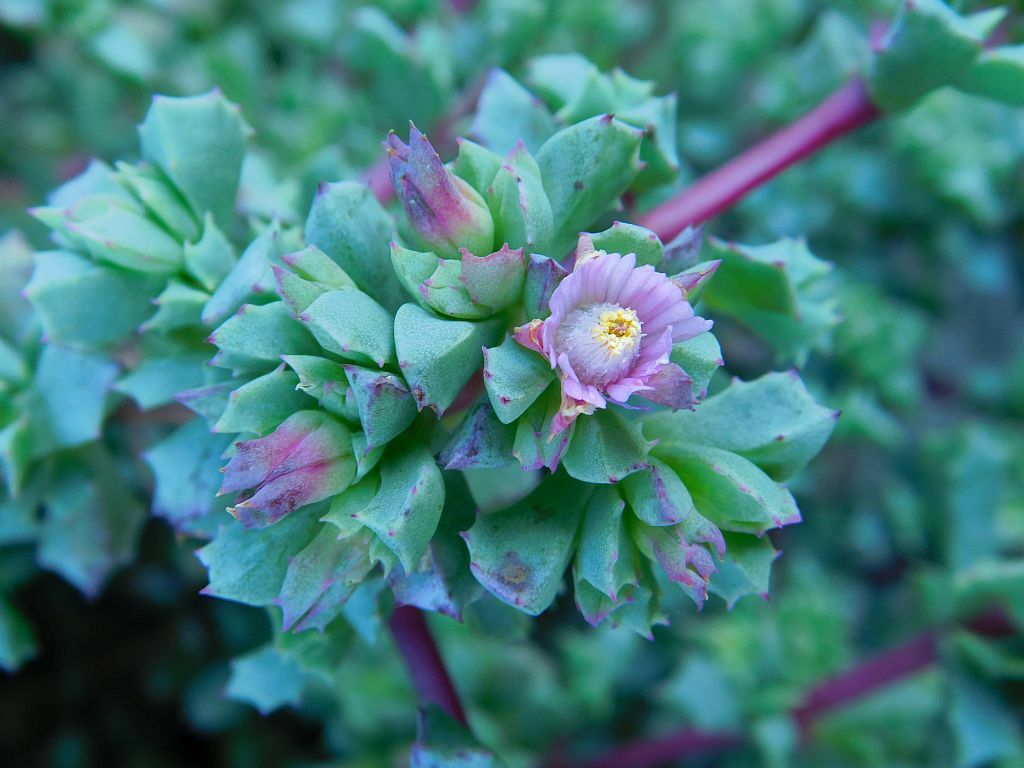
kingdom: Plantae
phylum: Tracheophyta
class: Magnoliopsida
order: Caryophyllales
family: Aizoaceae
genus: Oscularia
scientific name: Oscularia deltoides
